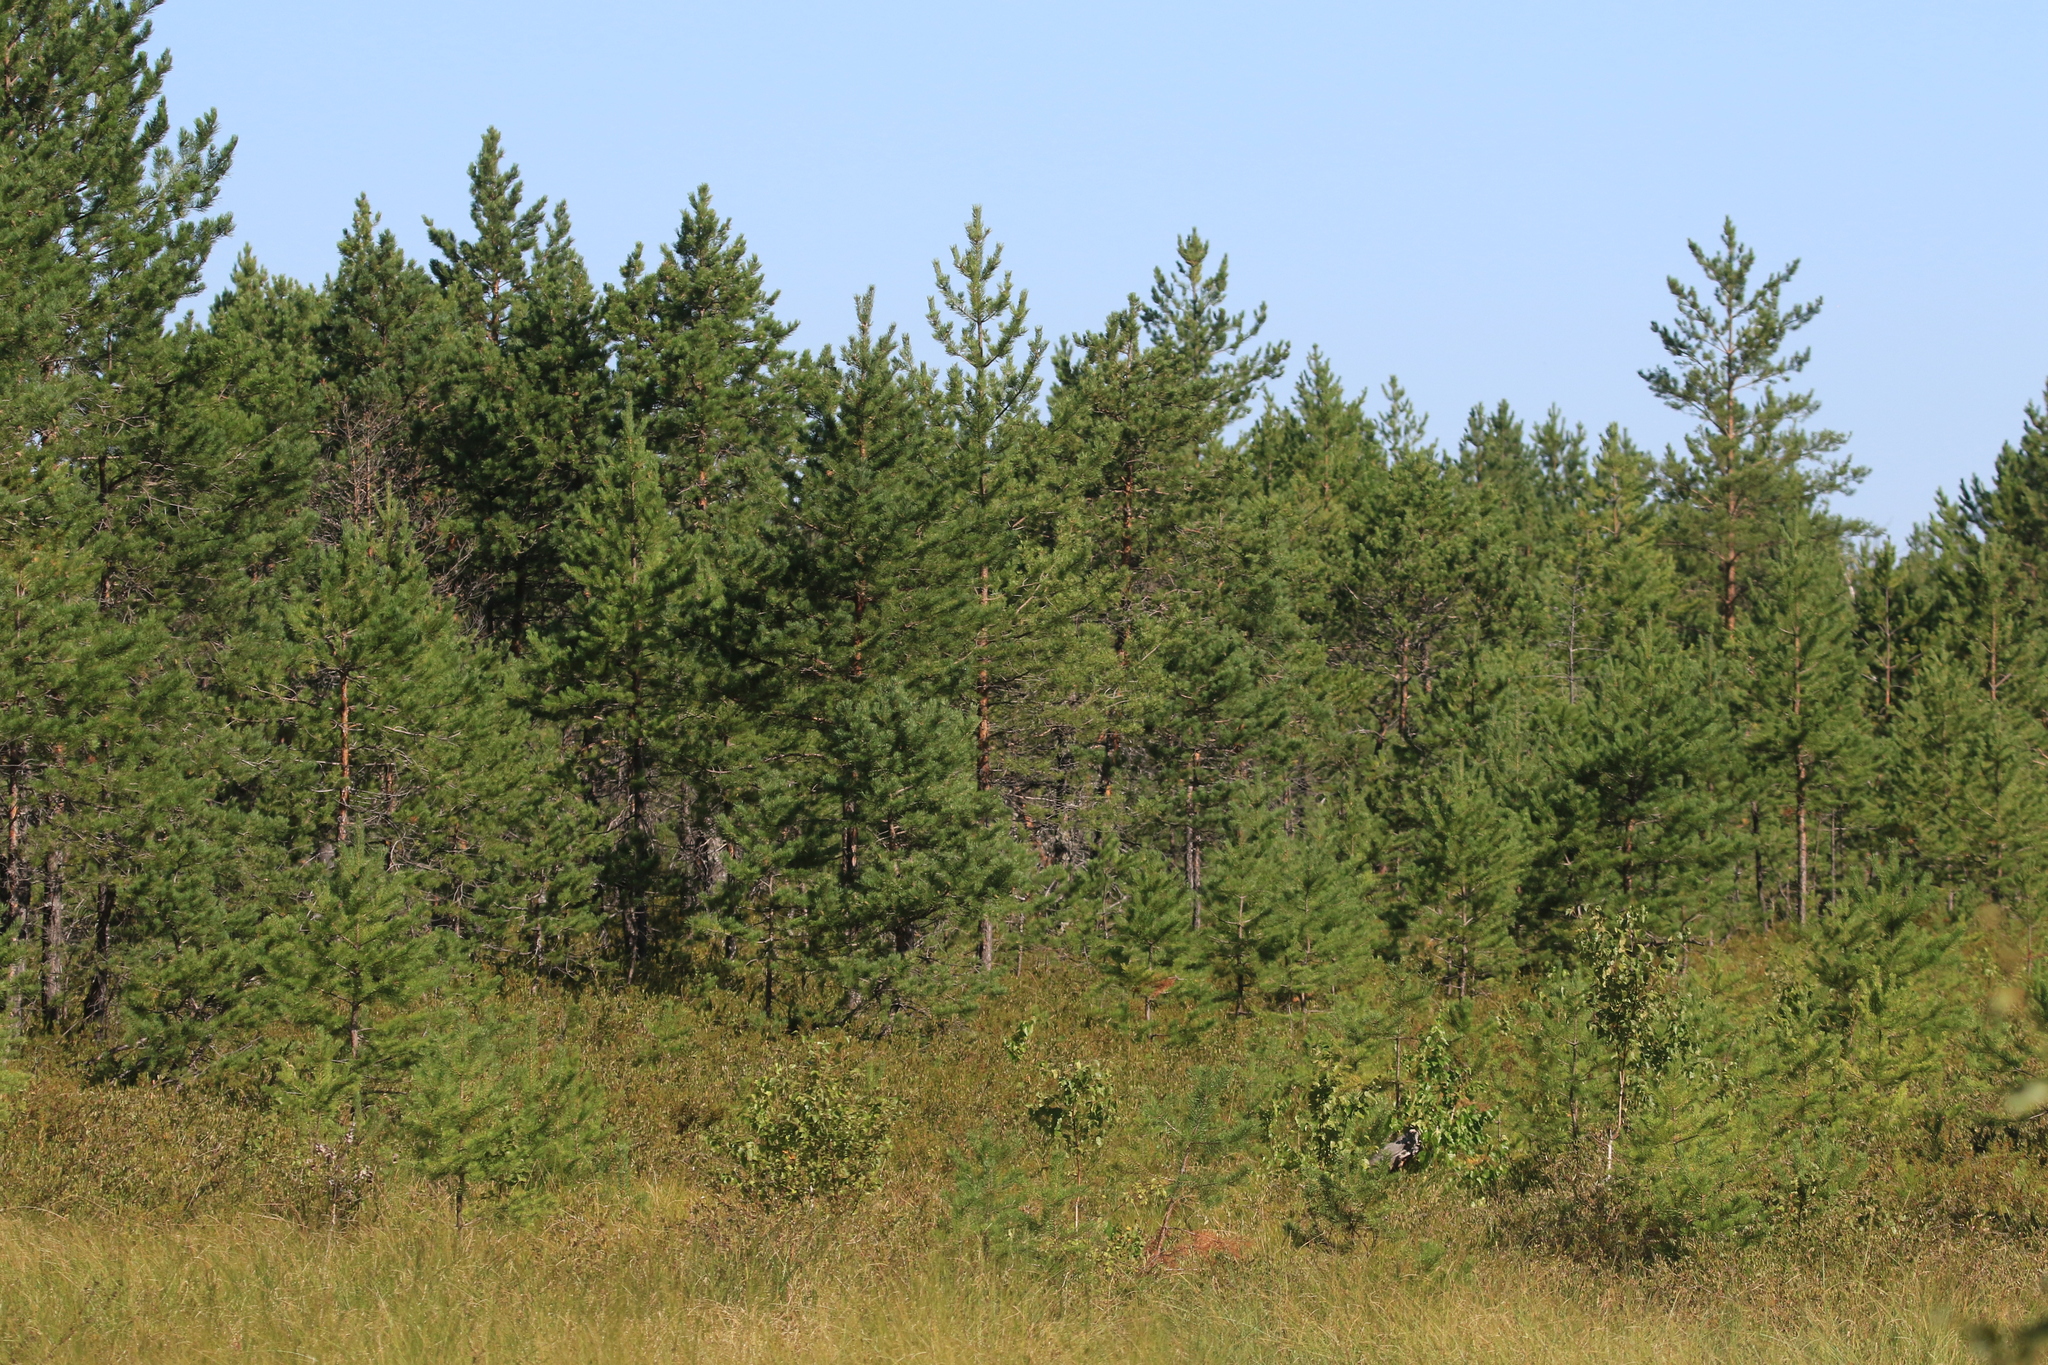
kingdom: Plantae
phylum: Tracheophyta
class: Pinopsida
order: Pinales
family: Pinaceae
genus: Pinus
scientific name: Pinus sylvestris
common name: Scots pine
